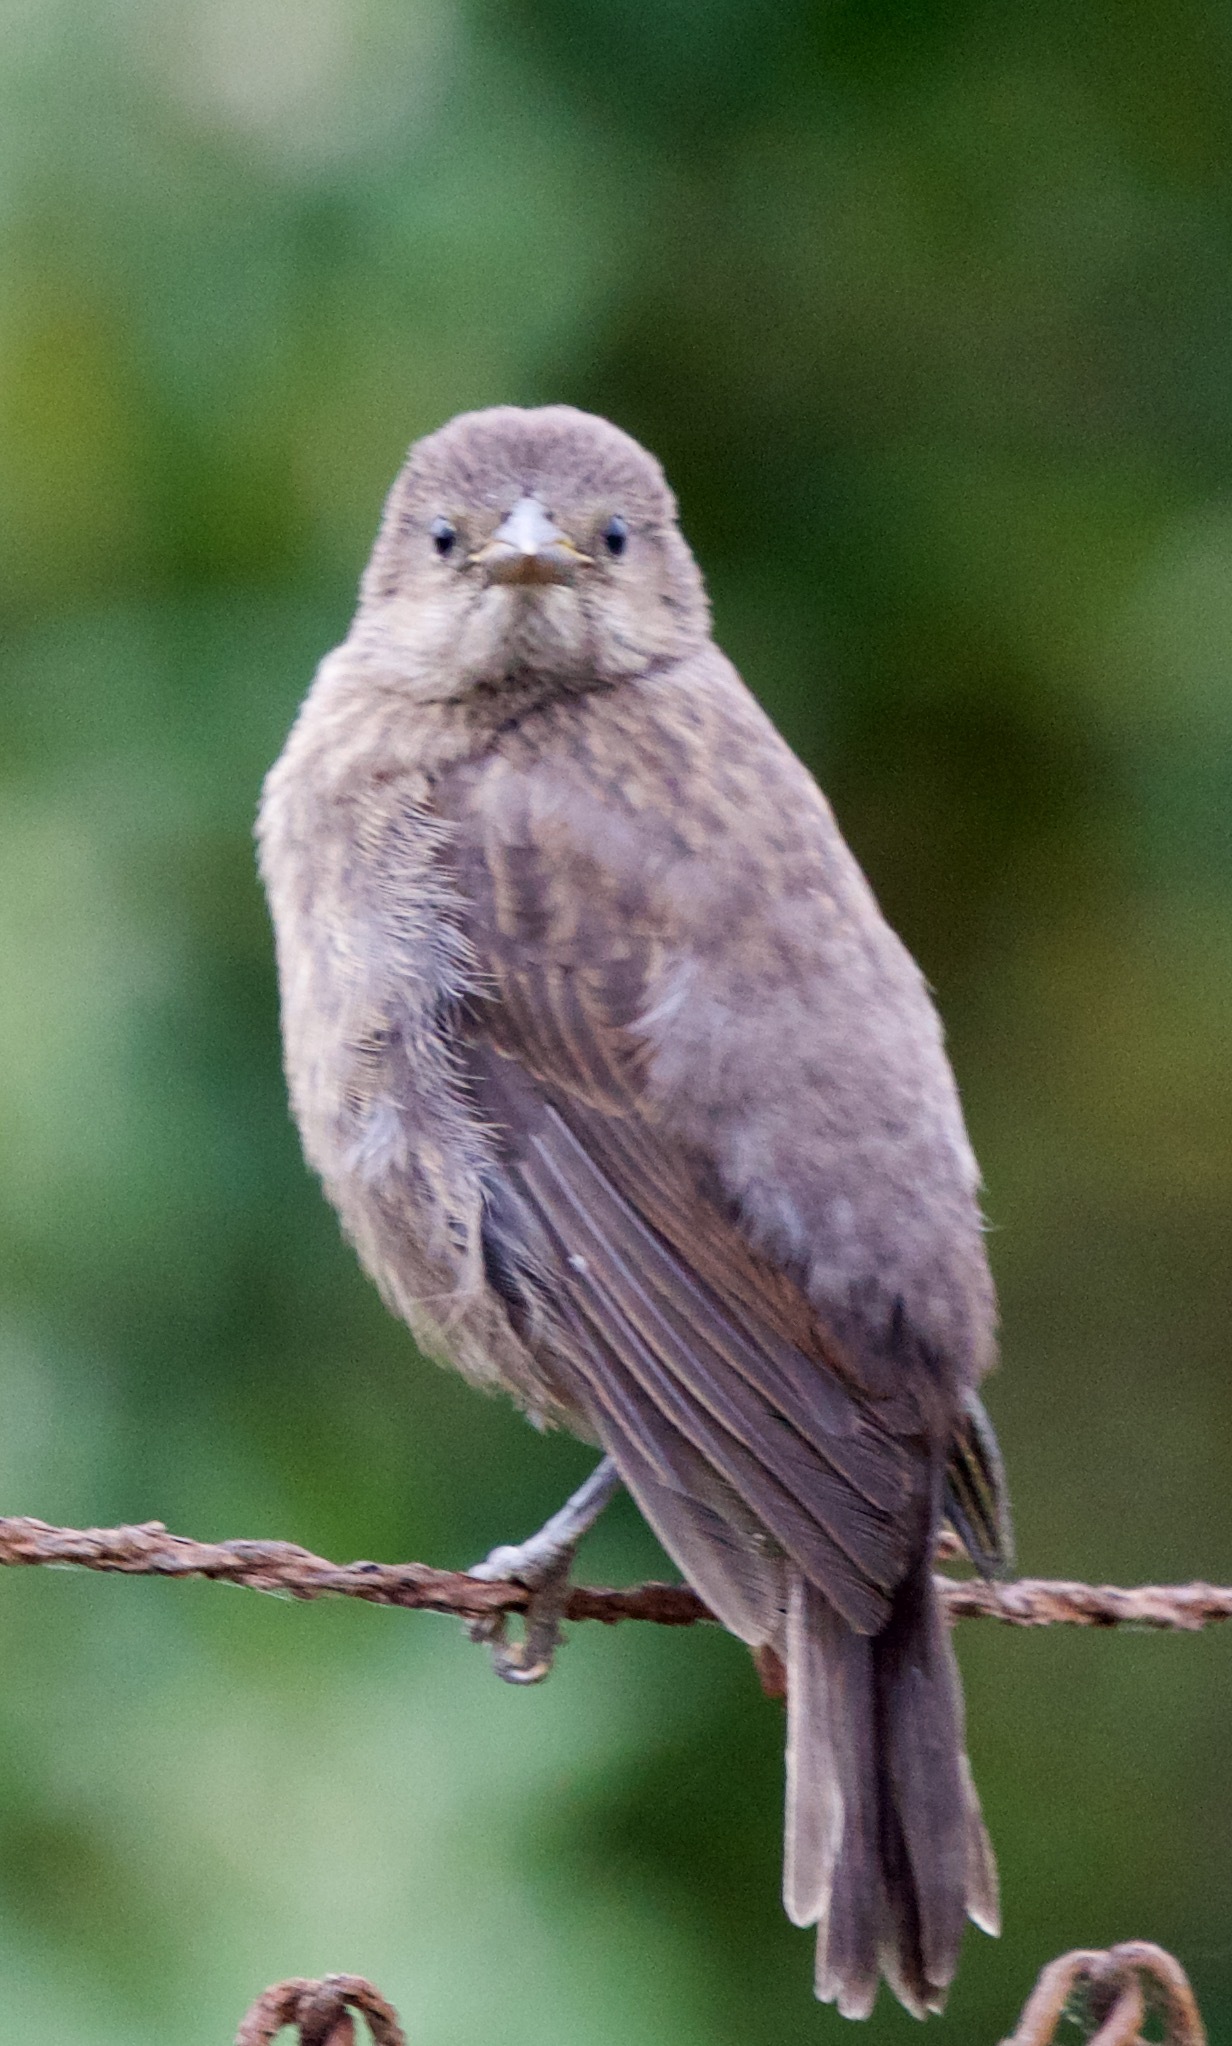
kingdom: Animalia
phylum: Chordata
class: Aves
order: Passeriformes
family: Icteridae
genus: Molothrus
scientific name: Molothrus bonariensis
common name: Shiny cowbird
